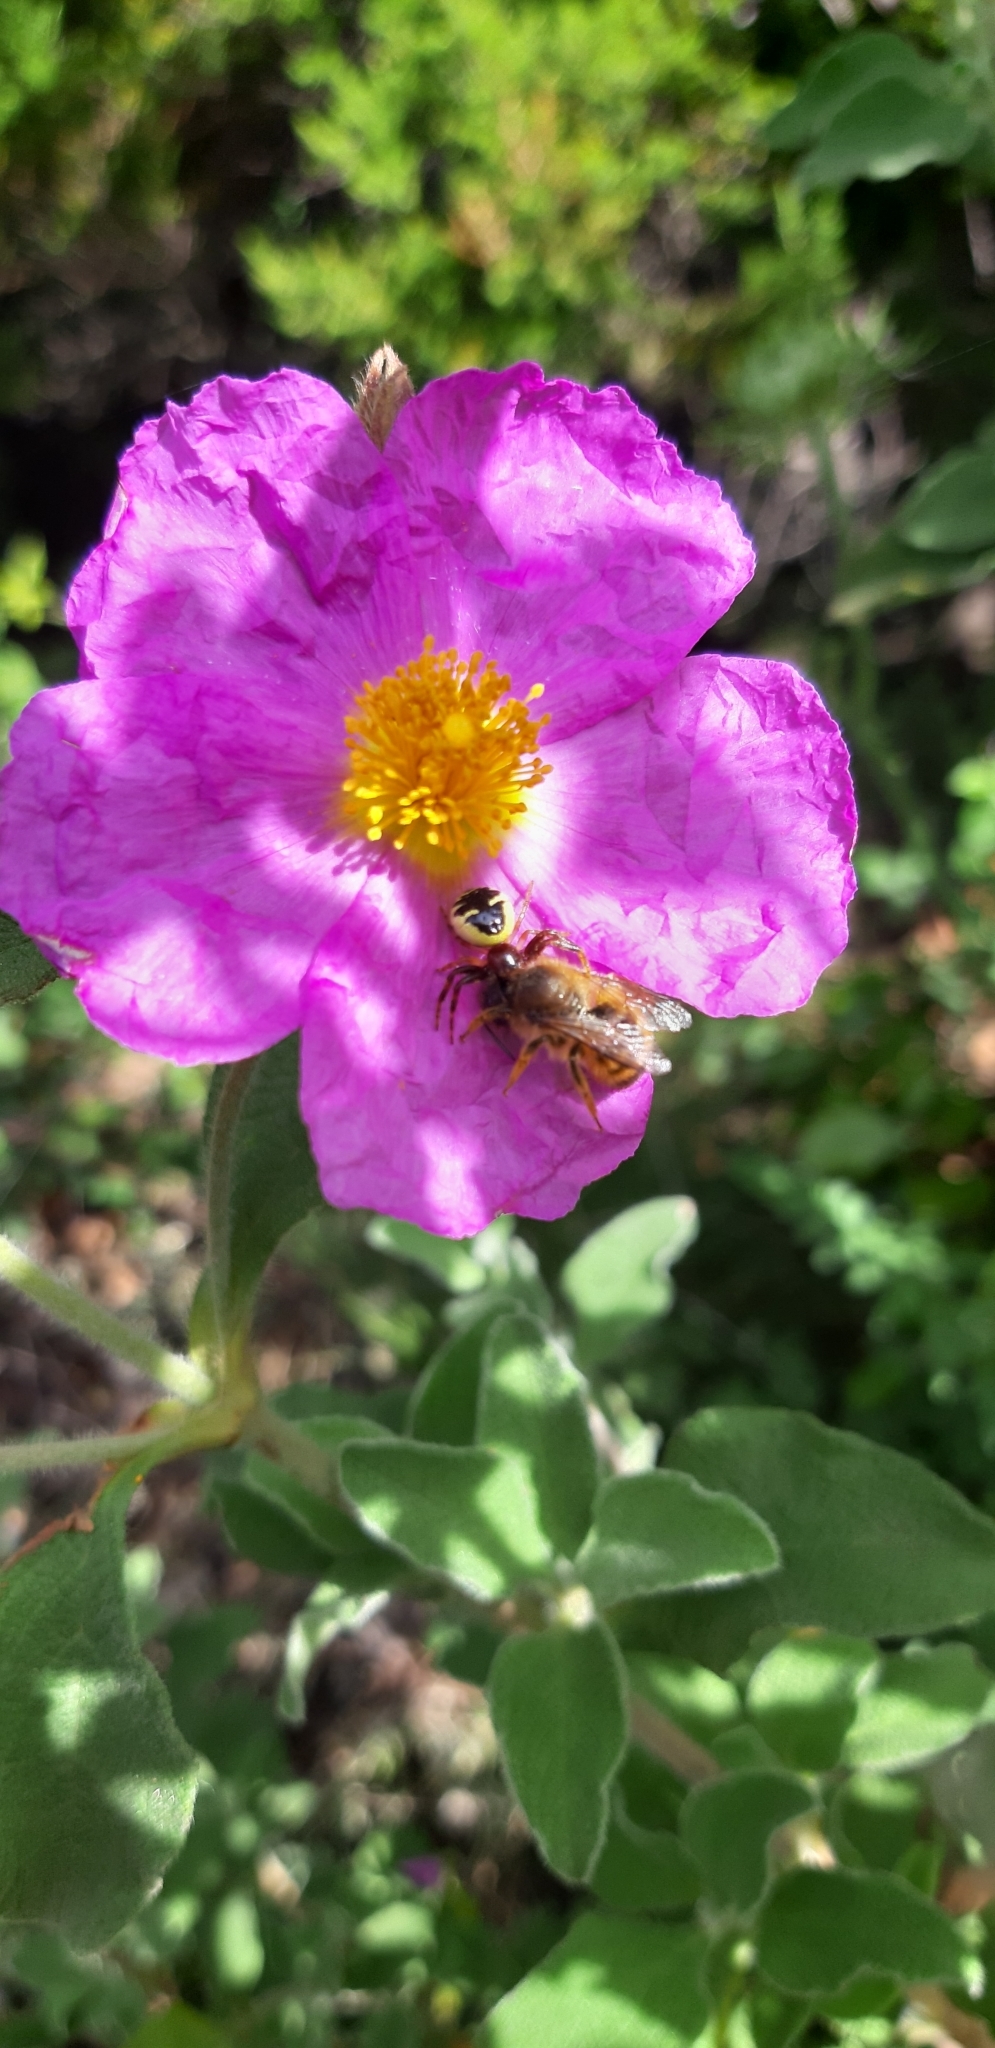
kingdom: Animalia
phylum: Arthropoda
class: Arachnida
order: Araneae
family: Thomisidae
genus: Synema
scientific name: Synema globosum
